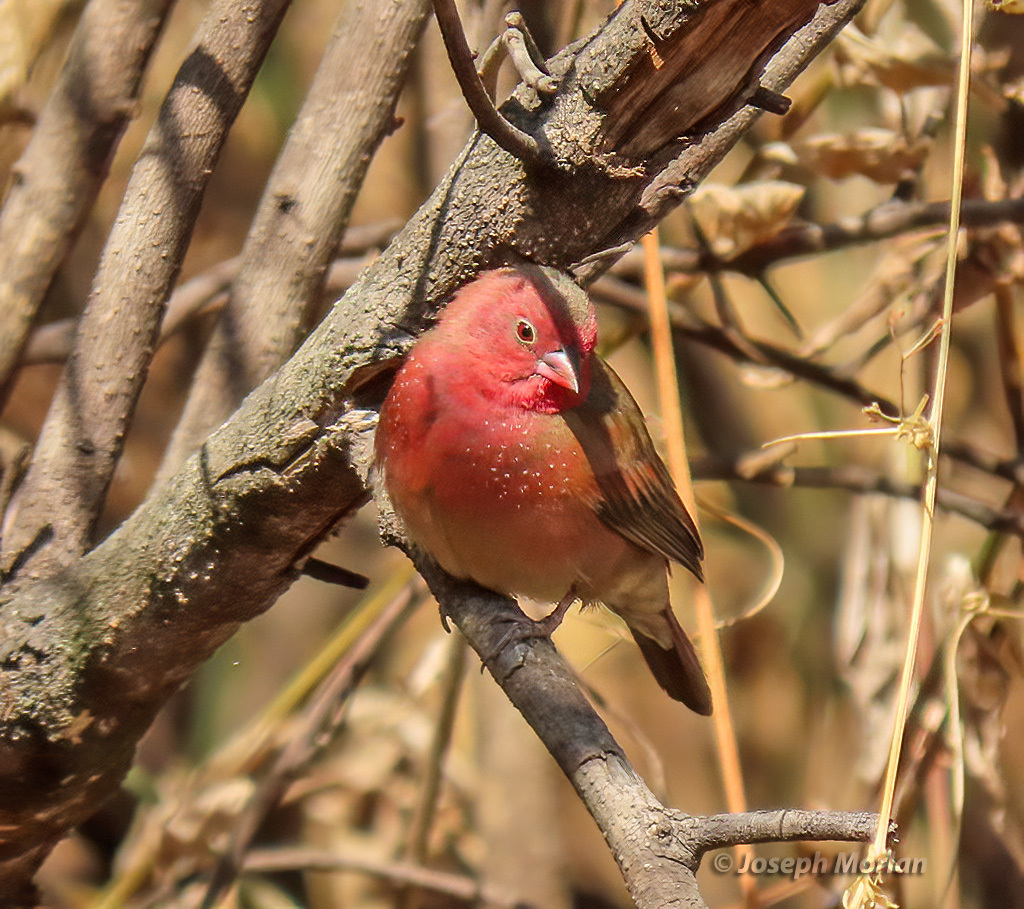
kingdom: Animalia
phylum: Chordata
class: Aves
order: Passeriformes
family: Estrildidae
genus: Lagonosticta
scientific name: Lagonosticta senegala
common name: Red-billed firefinch
